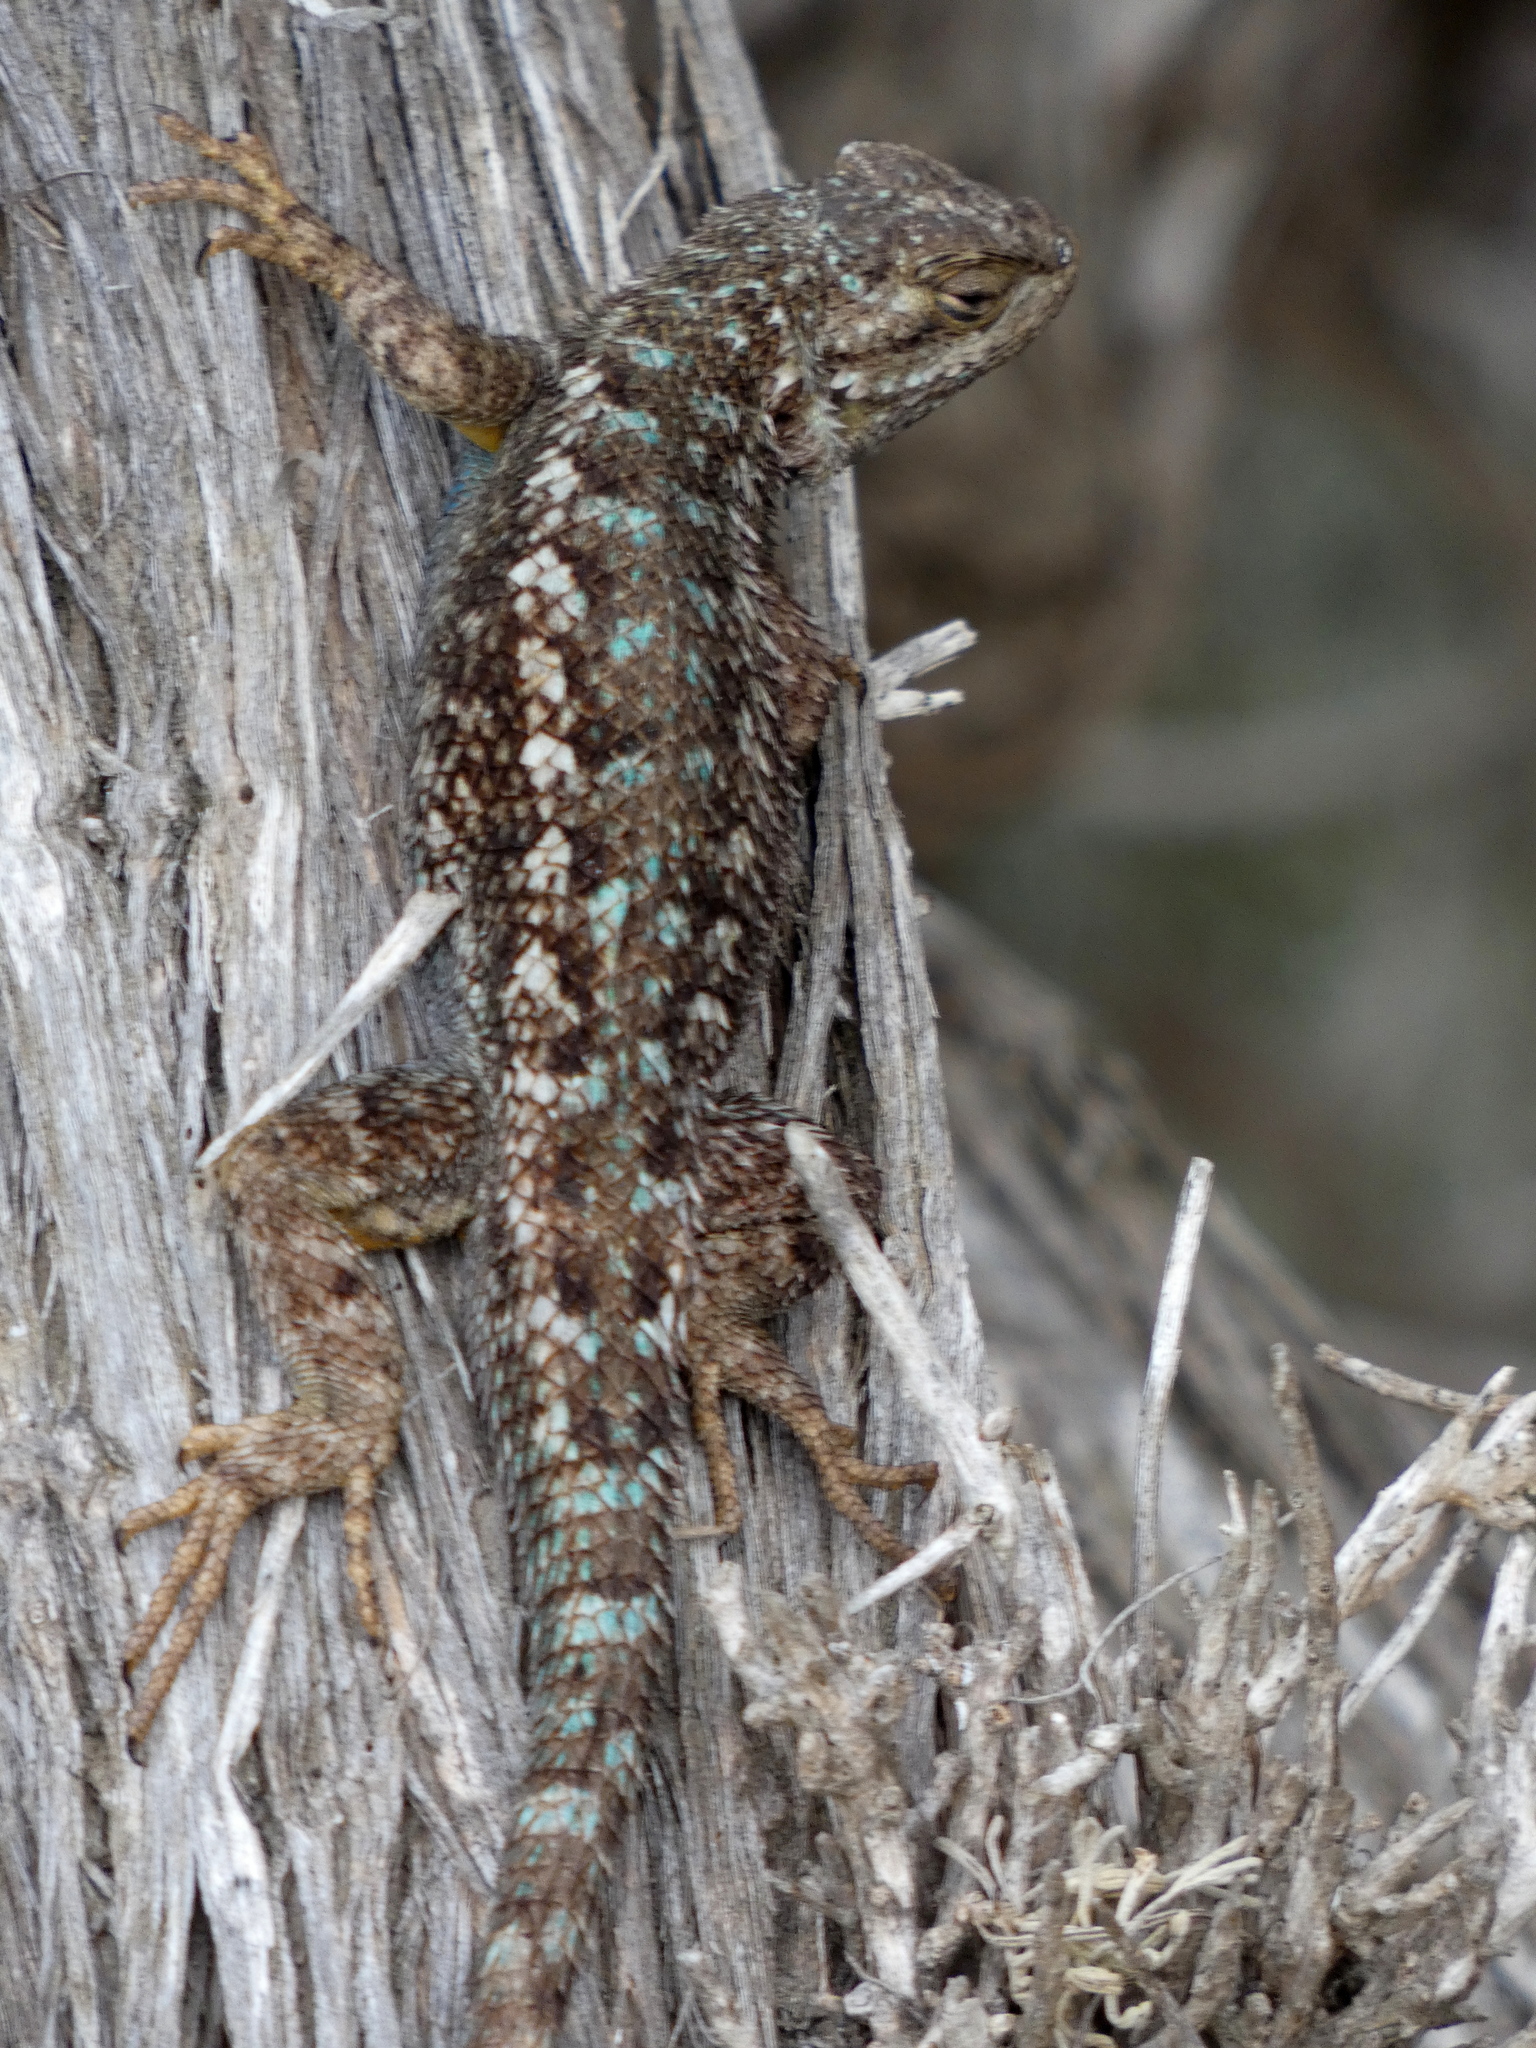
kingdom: Animalia
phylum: Chordata
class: Squamata
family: Phrynosomatidae
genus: Sceloporus
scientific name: Sceloporus occidentalis
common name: Western fence lizard
